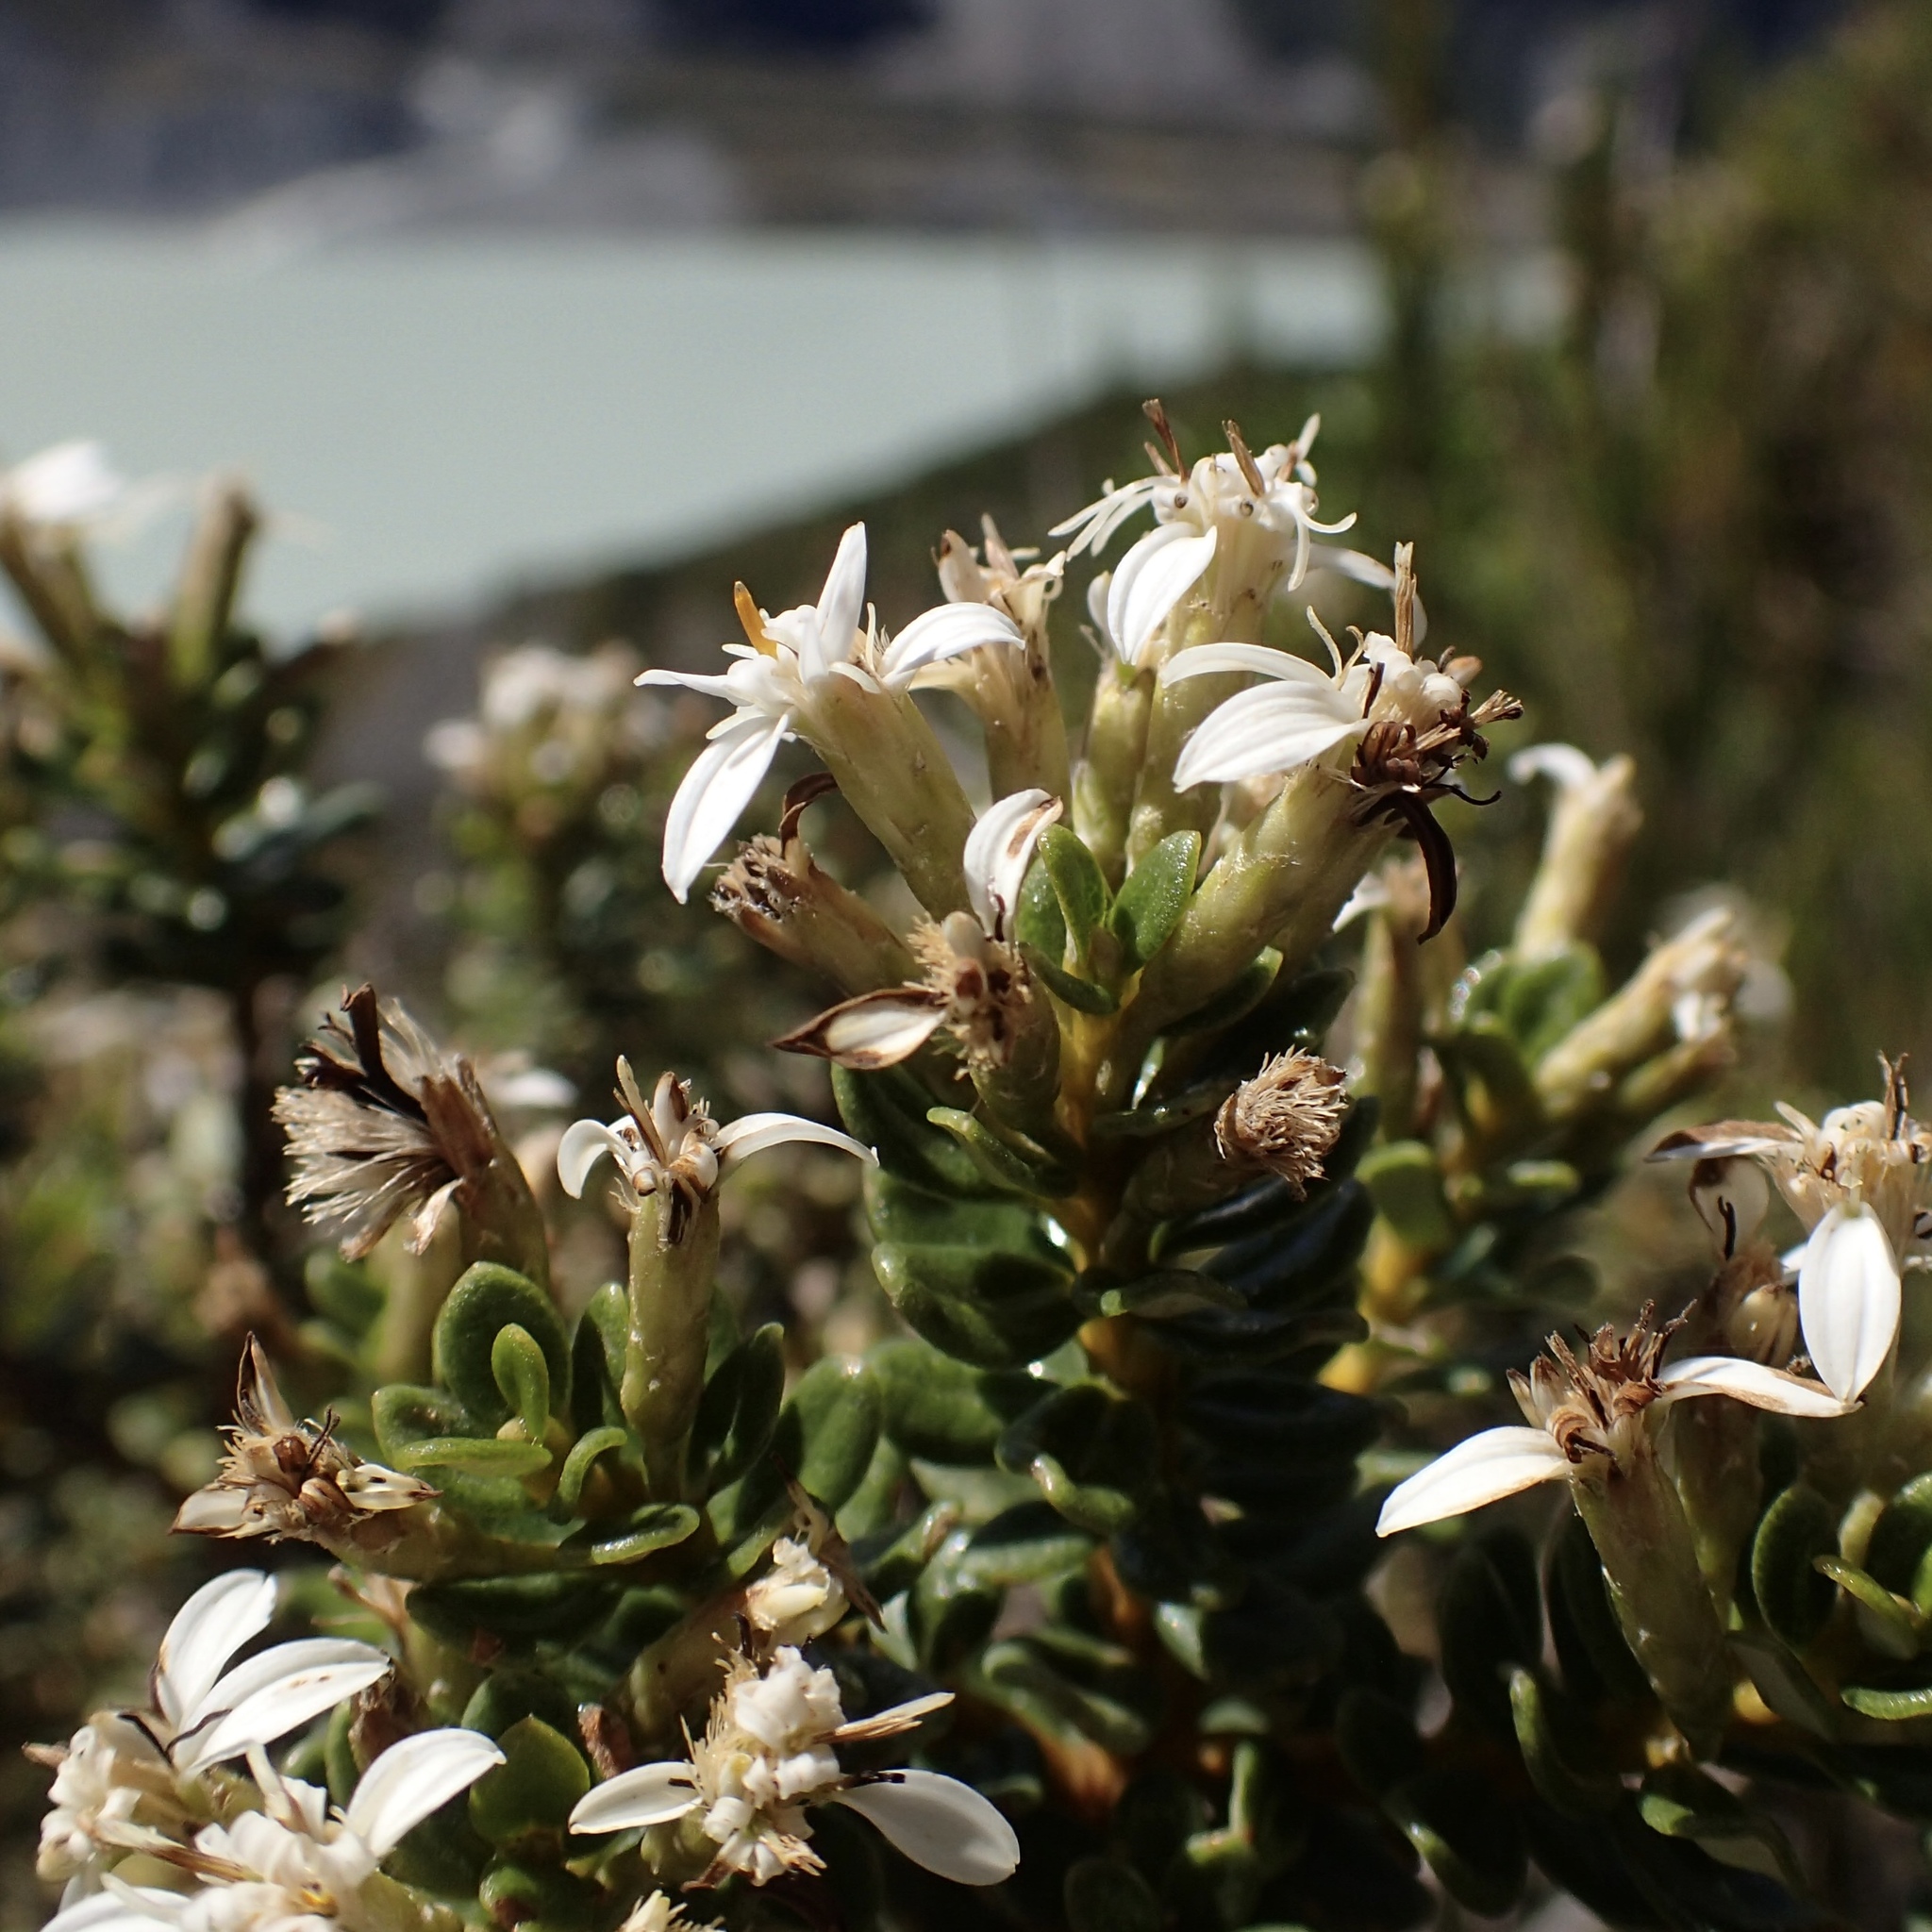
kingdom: Plantae
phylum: Tracheophyta
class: Magnoliopsida
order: Asterales
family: Asteraceae
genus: Olearia
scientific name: Olearia nummularifolia
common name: Sticky daisybush
